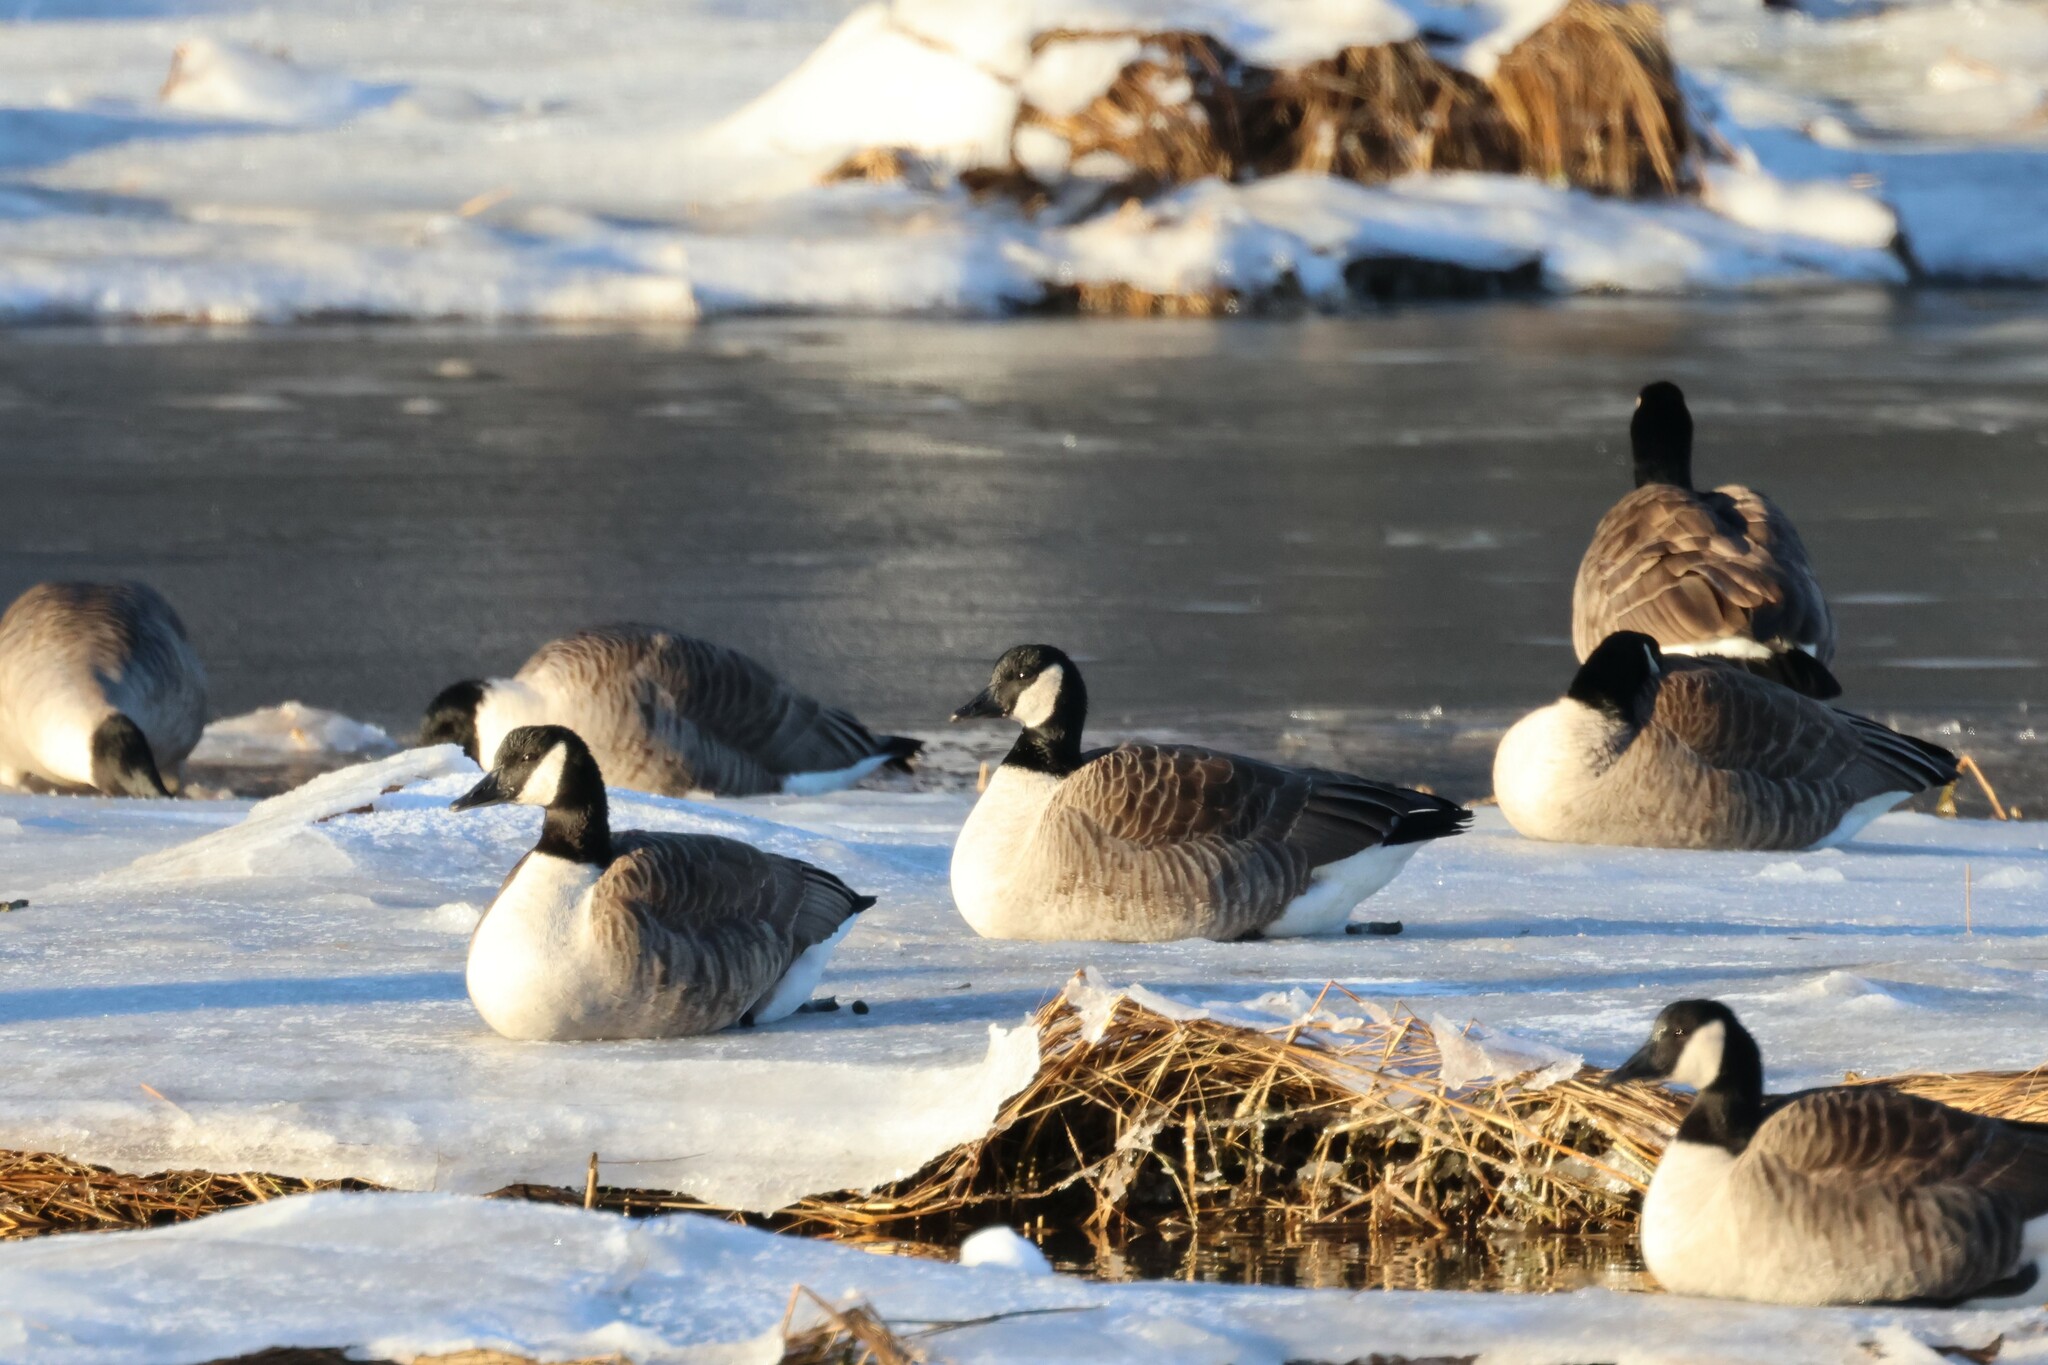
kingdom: Animalia
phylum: Chordata
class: Aves
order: Anseriformes
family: Anatidae
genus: Branta
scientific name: Branta canadensis
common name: Canada goose
